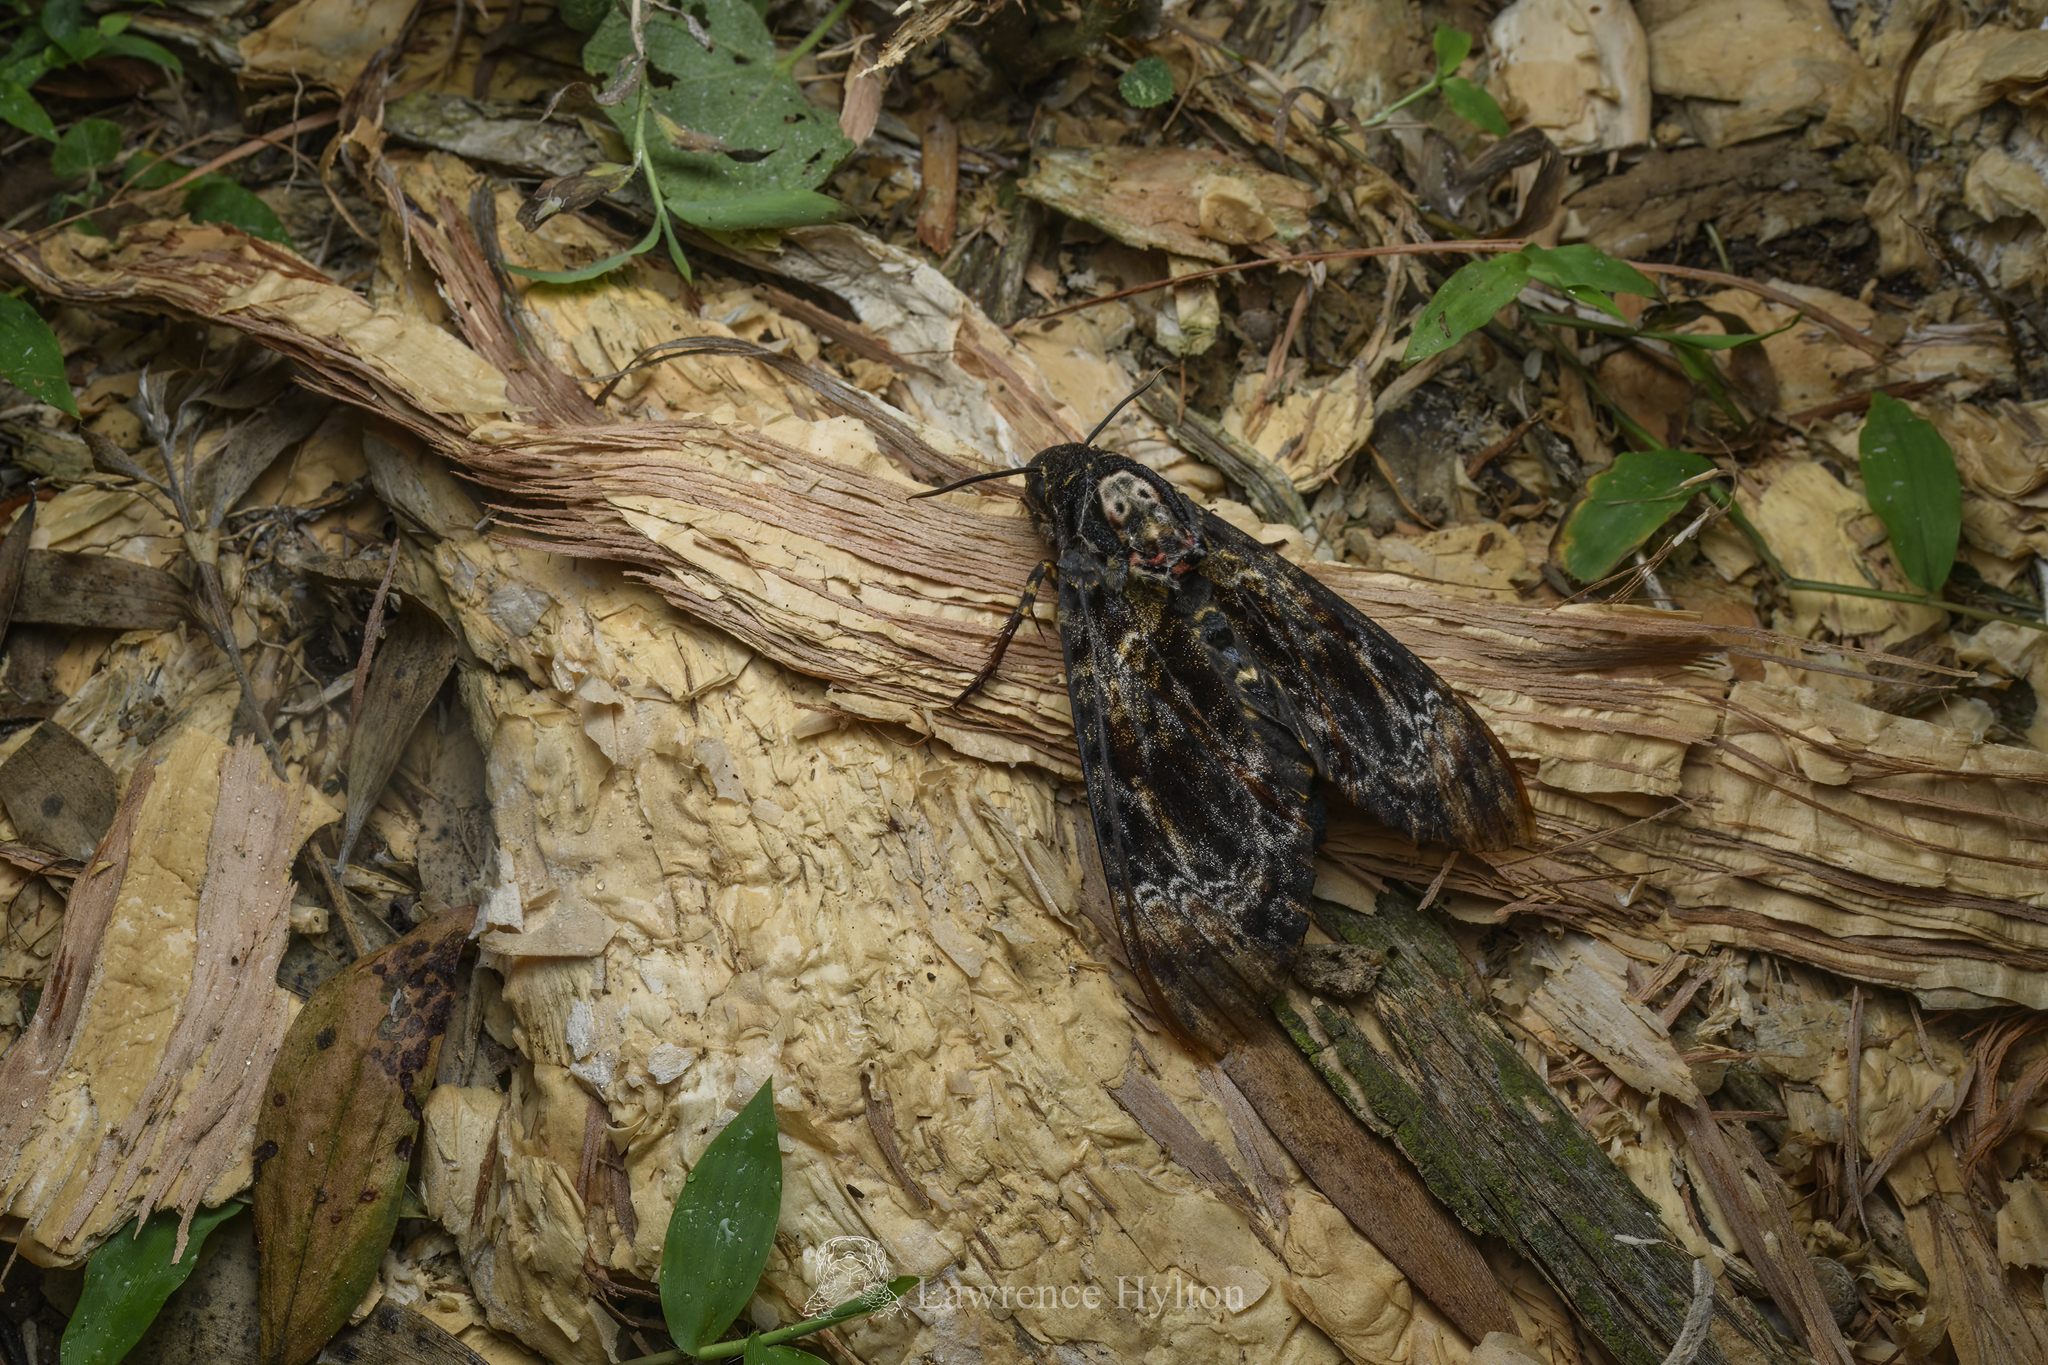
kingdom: Animalia
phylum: Arthropoda
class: Insecta
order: Lepidoptera
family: Sphingidae
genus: Acherontia
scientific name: Acherontia lachesis
